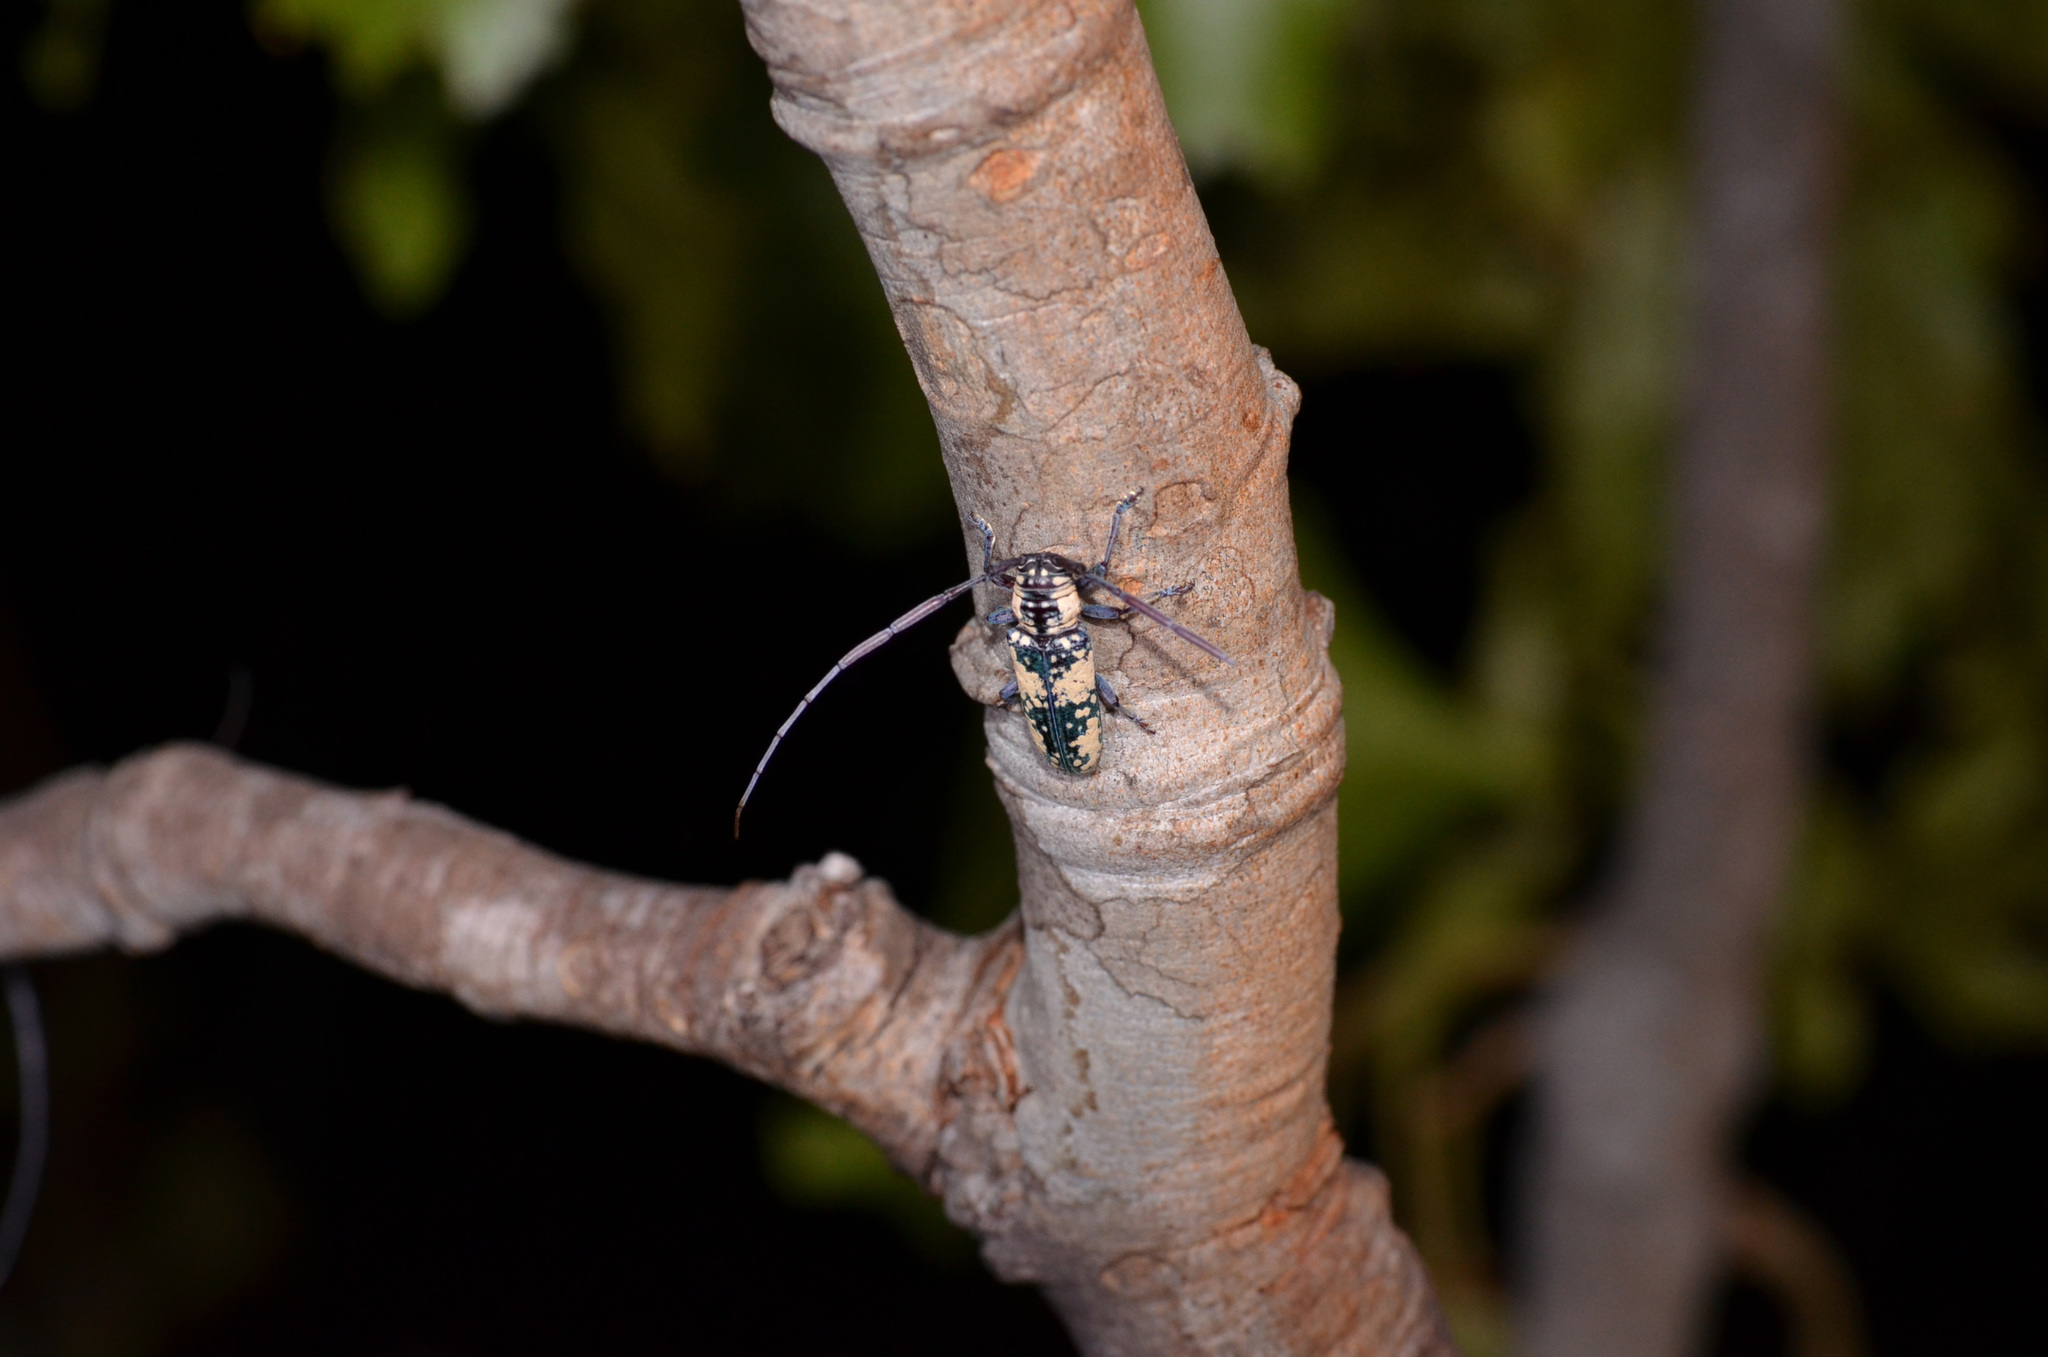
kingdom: Animalia
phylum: Arthropoda
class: Insecta
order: Coleoptera
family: Cerambycidae
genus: Prosopocera
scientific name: Prosopocera marshalli
